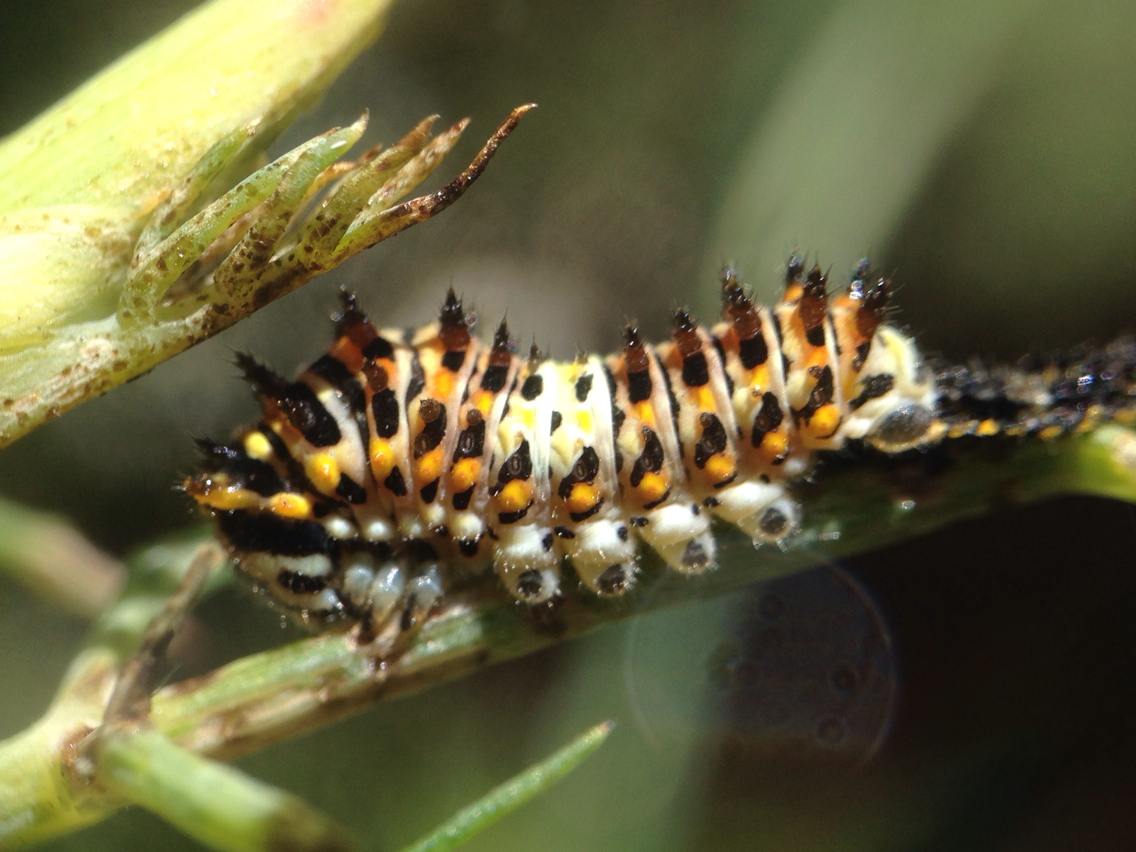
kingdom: Animalia
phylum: Arthropoda
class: Insecta
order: Lepidoptera
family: Papilionidae
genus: Papilio
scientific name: Papilio zelicaon
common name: Anise swallowtail
